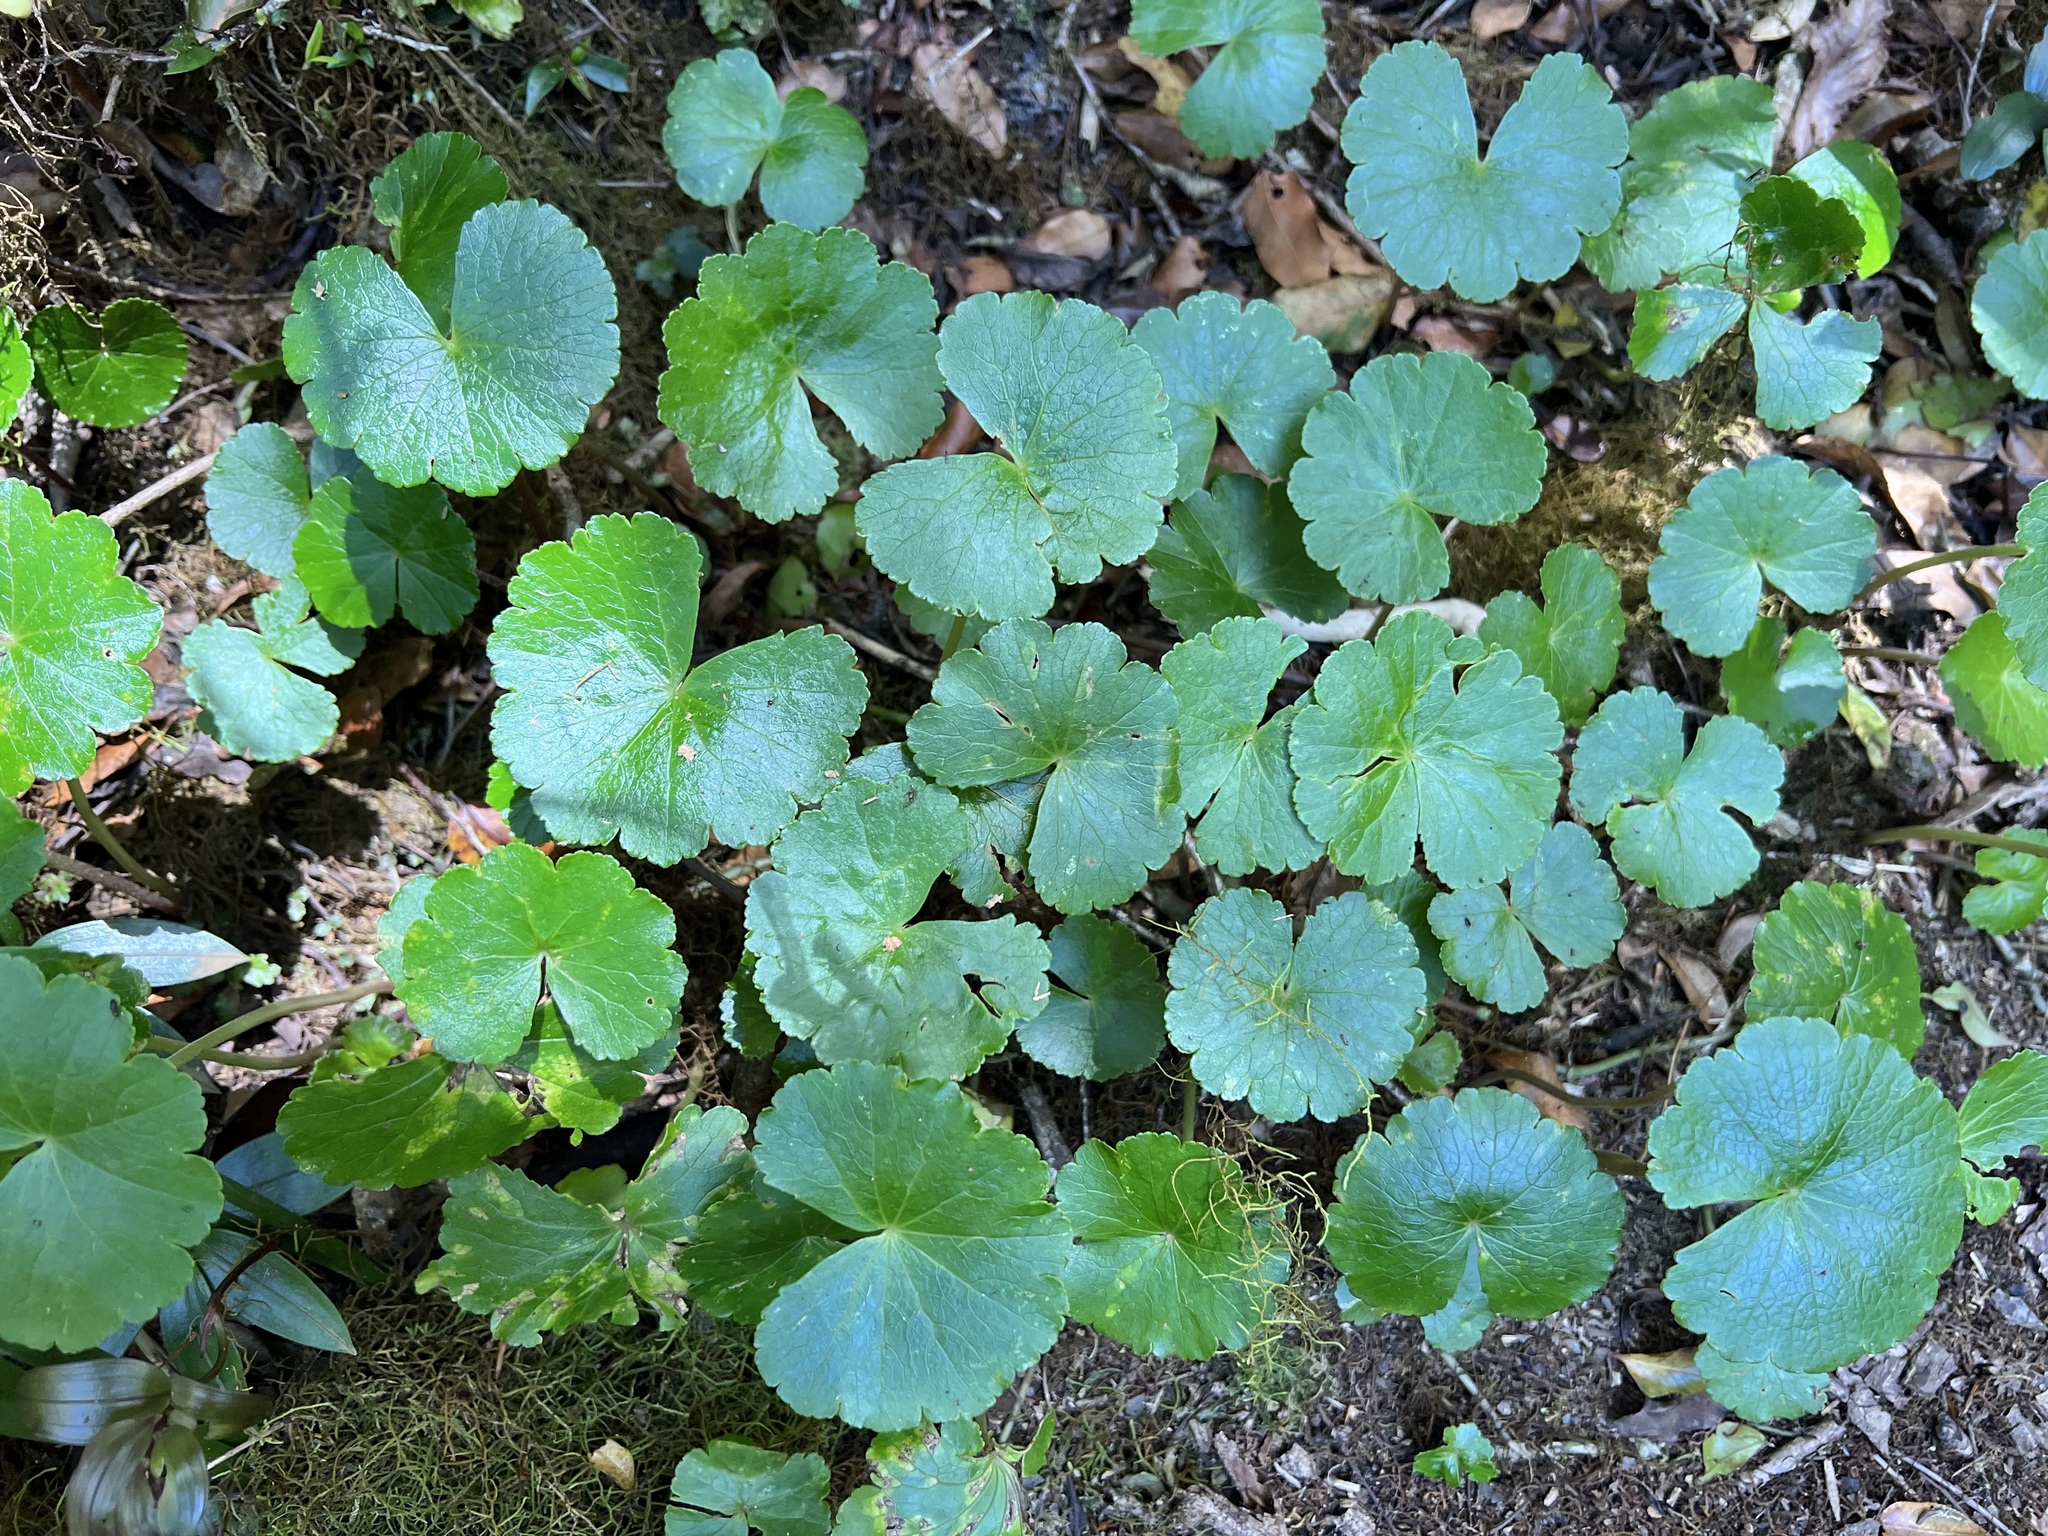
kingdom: Plantae
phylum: Tracheophyta
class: Magnoliopsida
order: Apiales
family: Araliaceae
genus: Hydrocotyle
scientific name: Hydrocotyle pedicellosa
